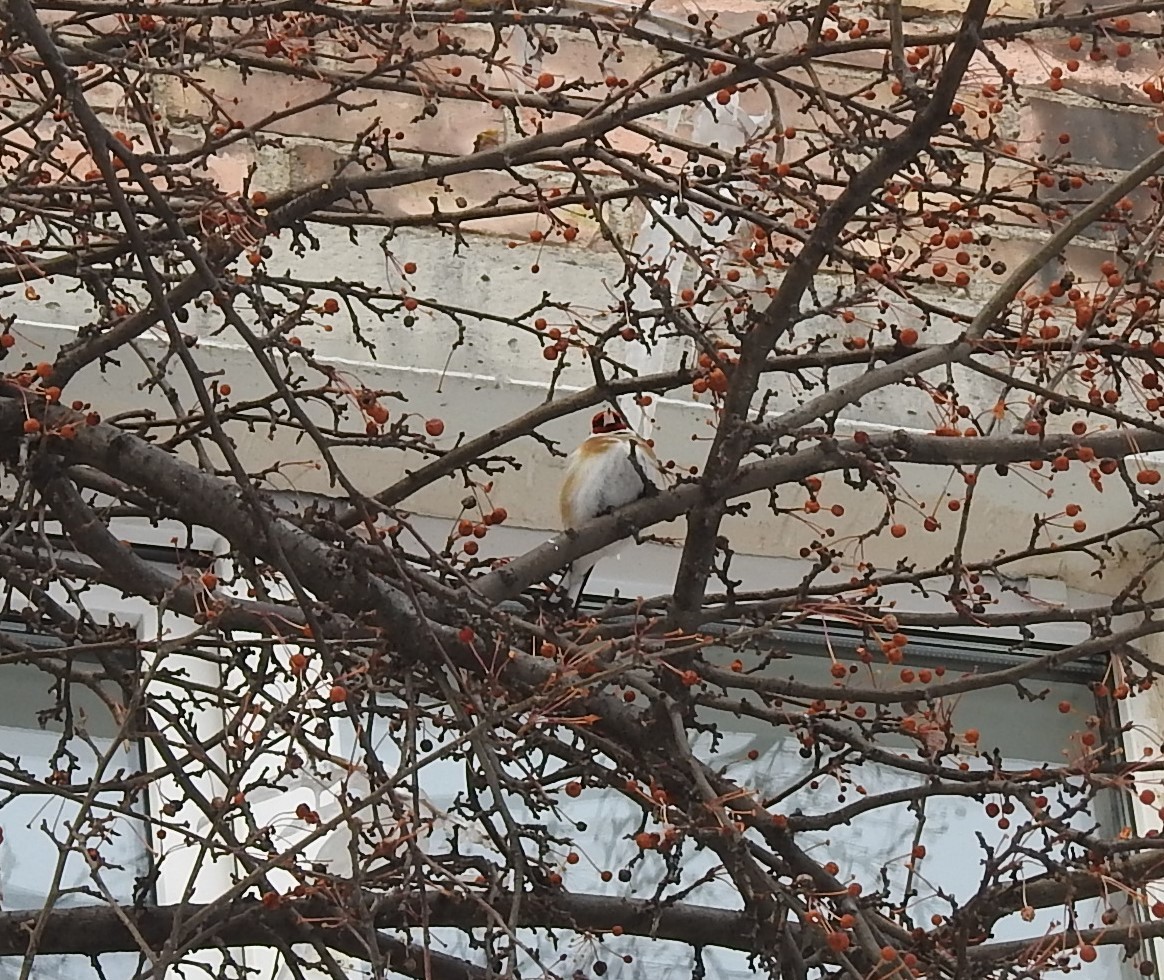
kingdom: Animalia
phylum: Chordata
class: Aves
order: Passeriformes
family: Fringillidae
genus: Carduelis
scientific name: Carduelis carduelis
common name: European goldfinch
